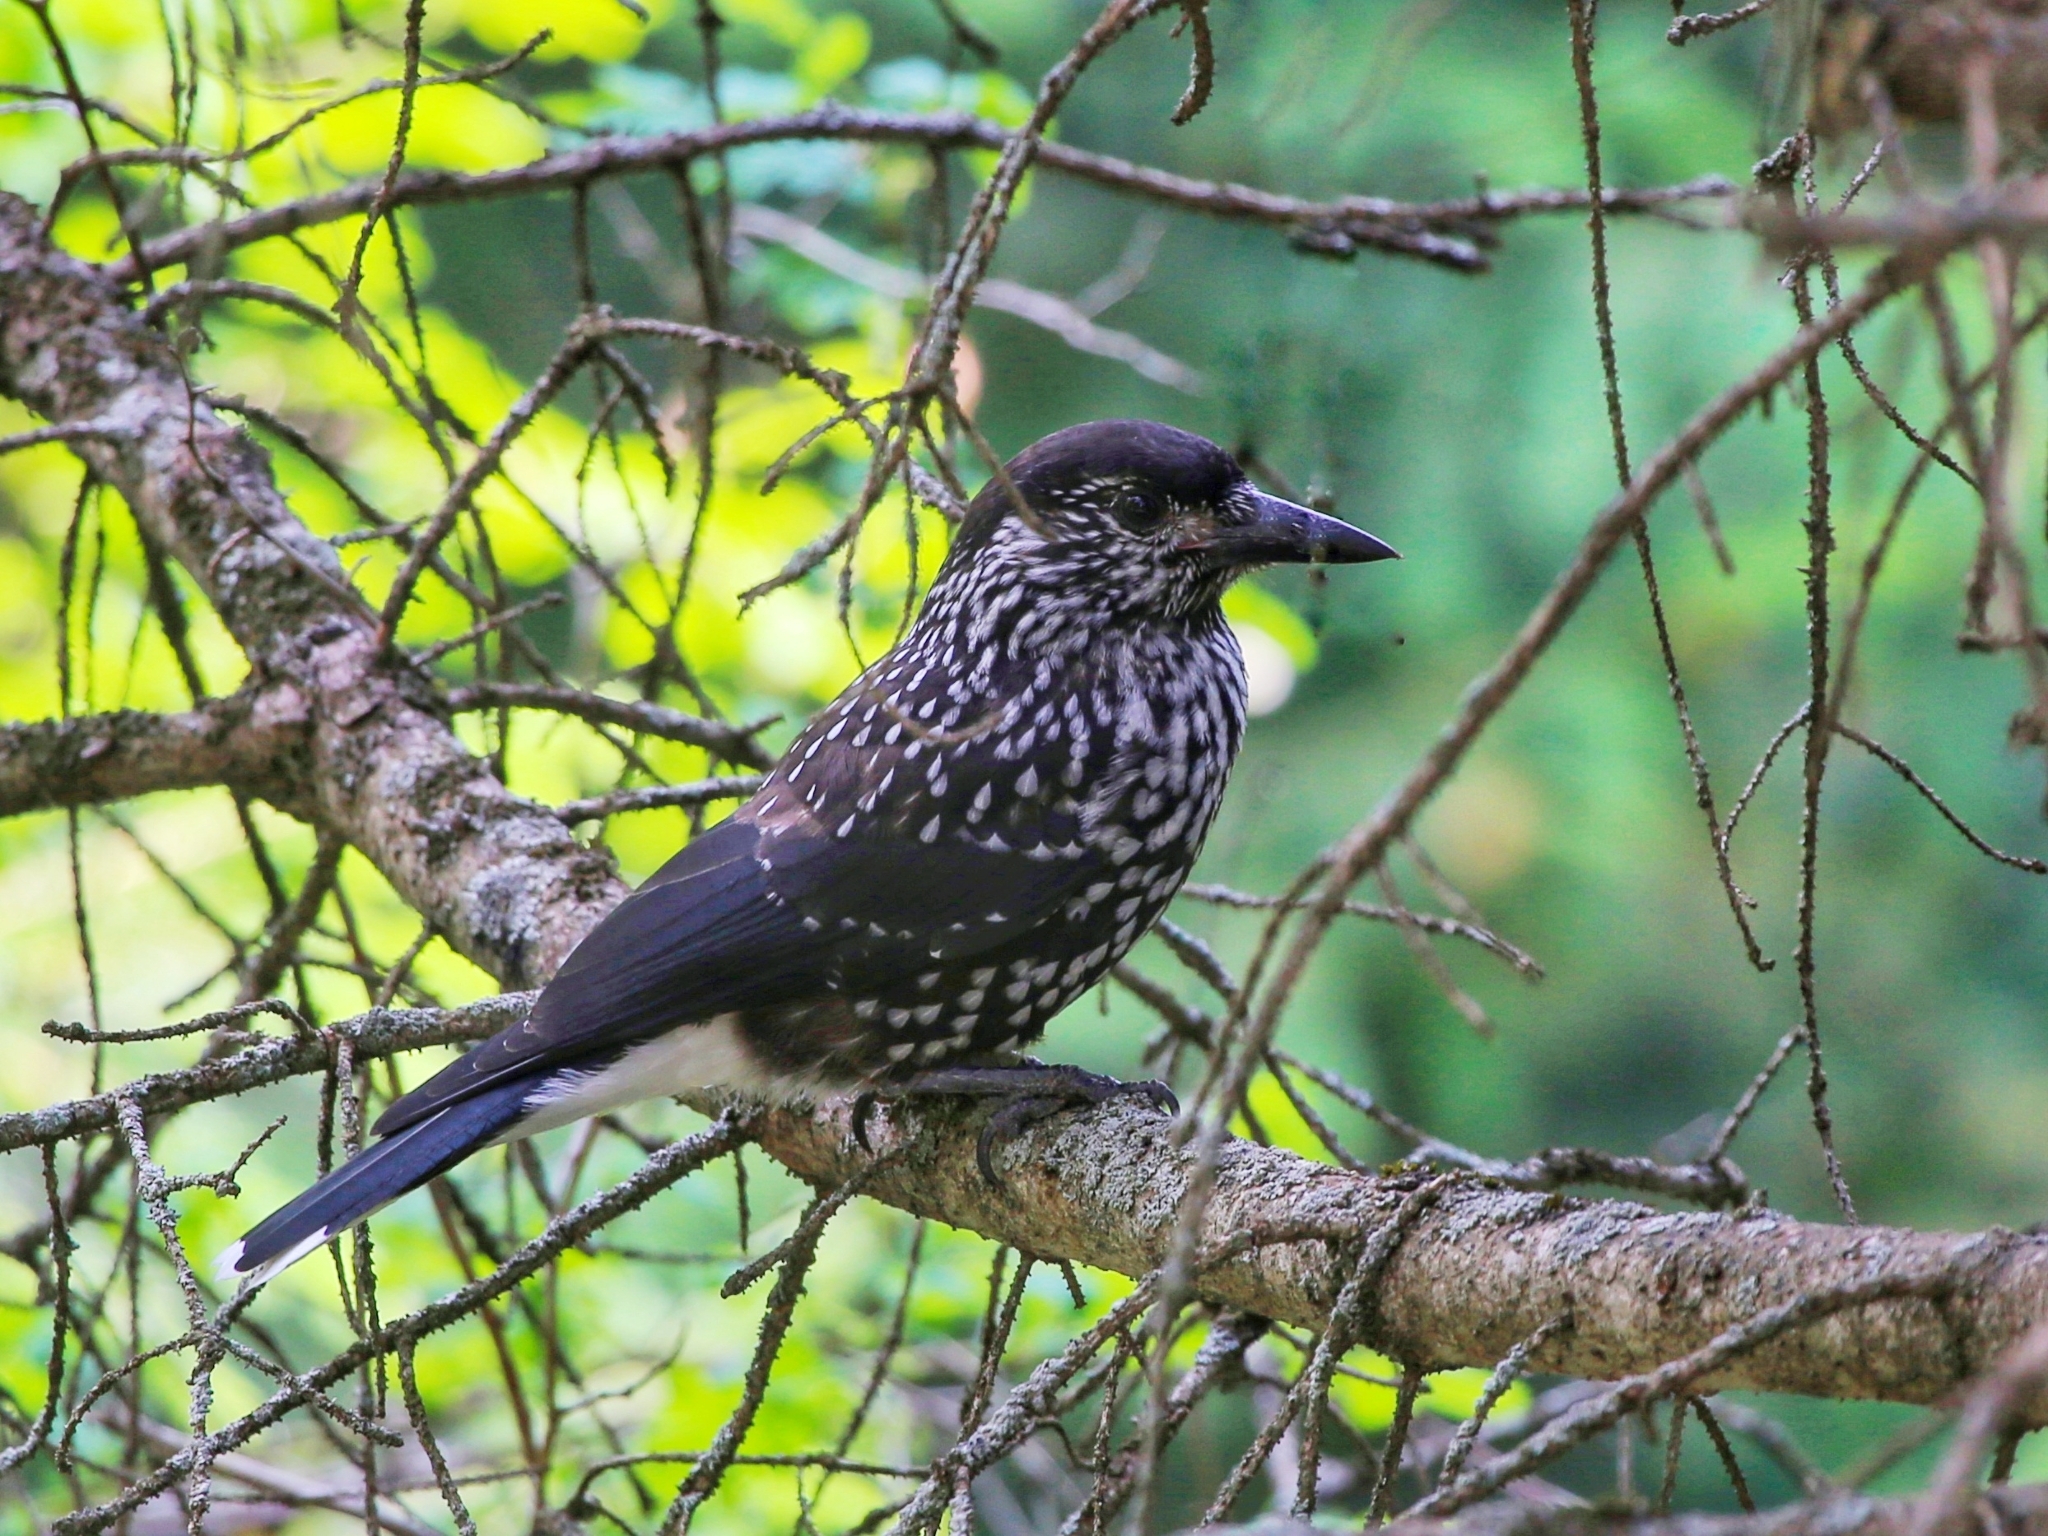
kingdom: Animalia
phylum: Chordata
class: Aves
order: Passeriformes
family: Corvidae
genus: Nucifraga
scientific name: Nucifraga caryocatactes
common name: Spotted nutcracker
